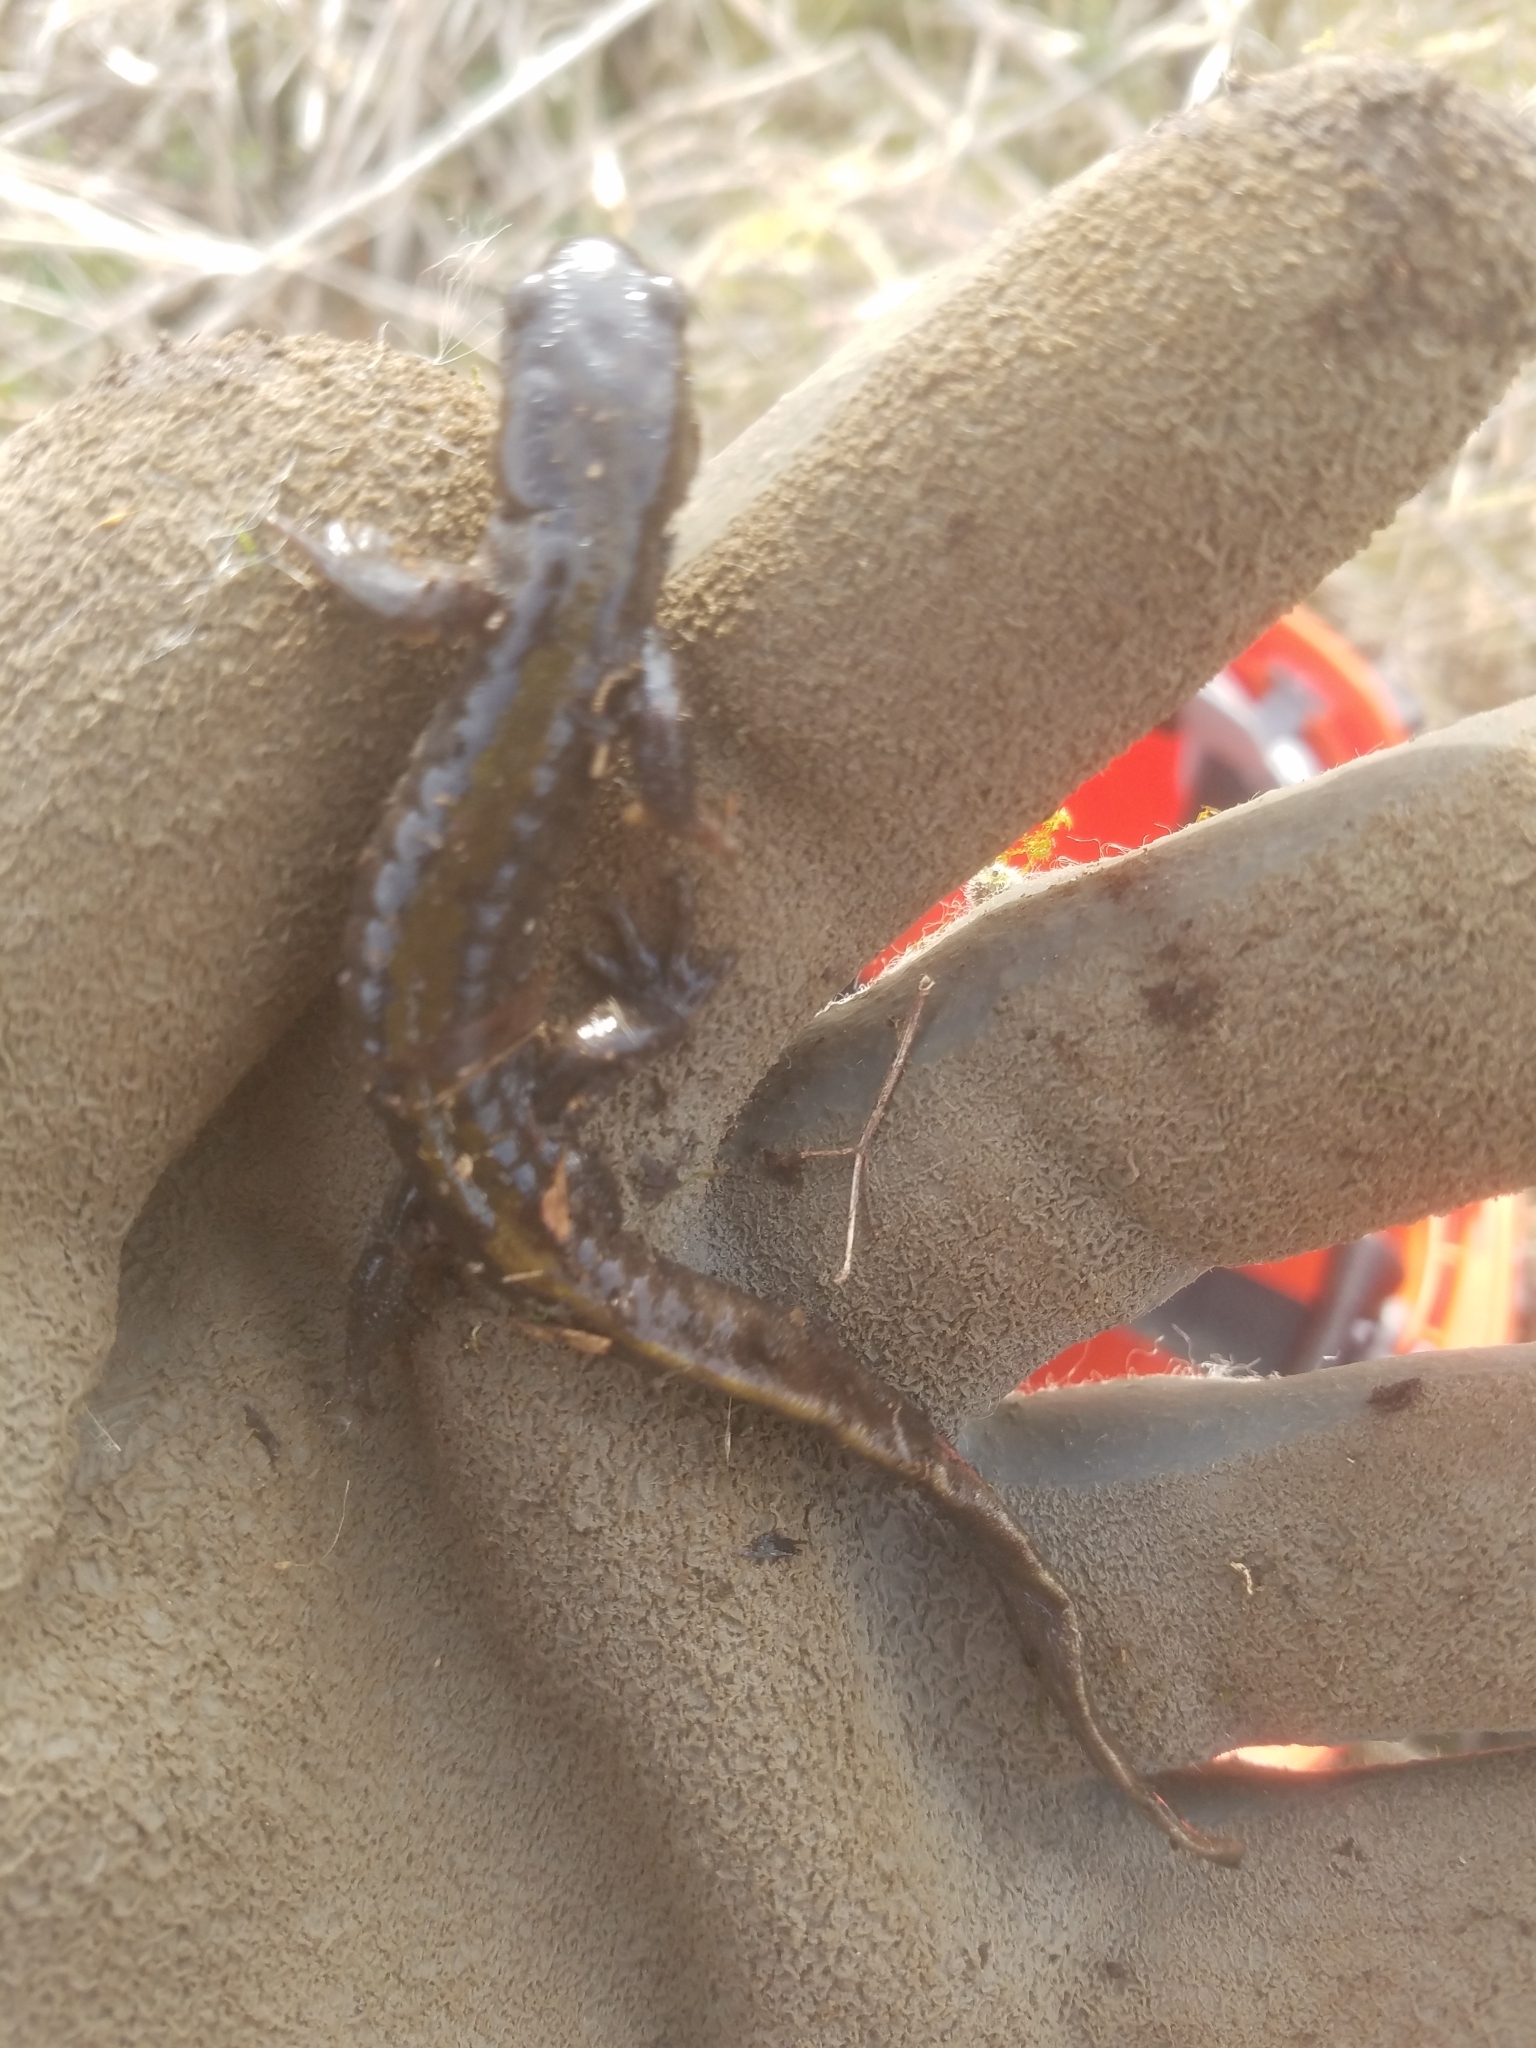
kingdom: Animalia
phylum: Chordata
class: Amphibia
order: Caudata
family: Ambystomatidae
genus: Ambystoma
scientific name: Ambystoma macrodactylum
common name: Long-toed salamander
